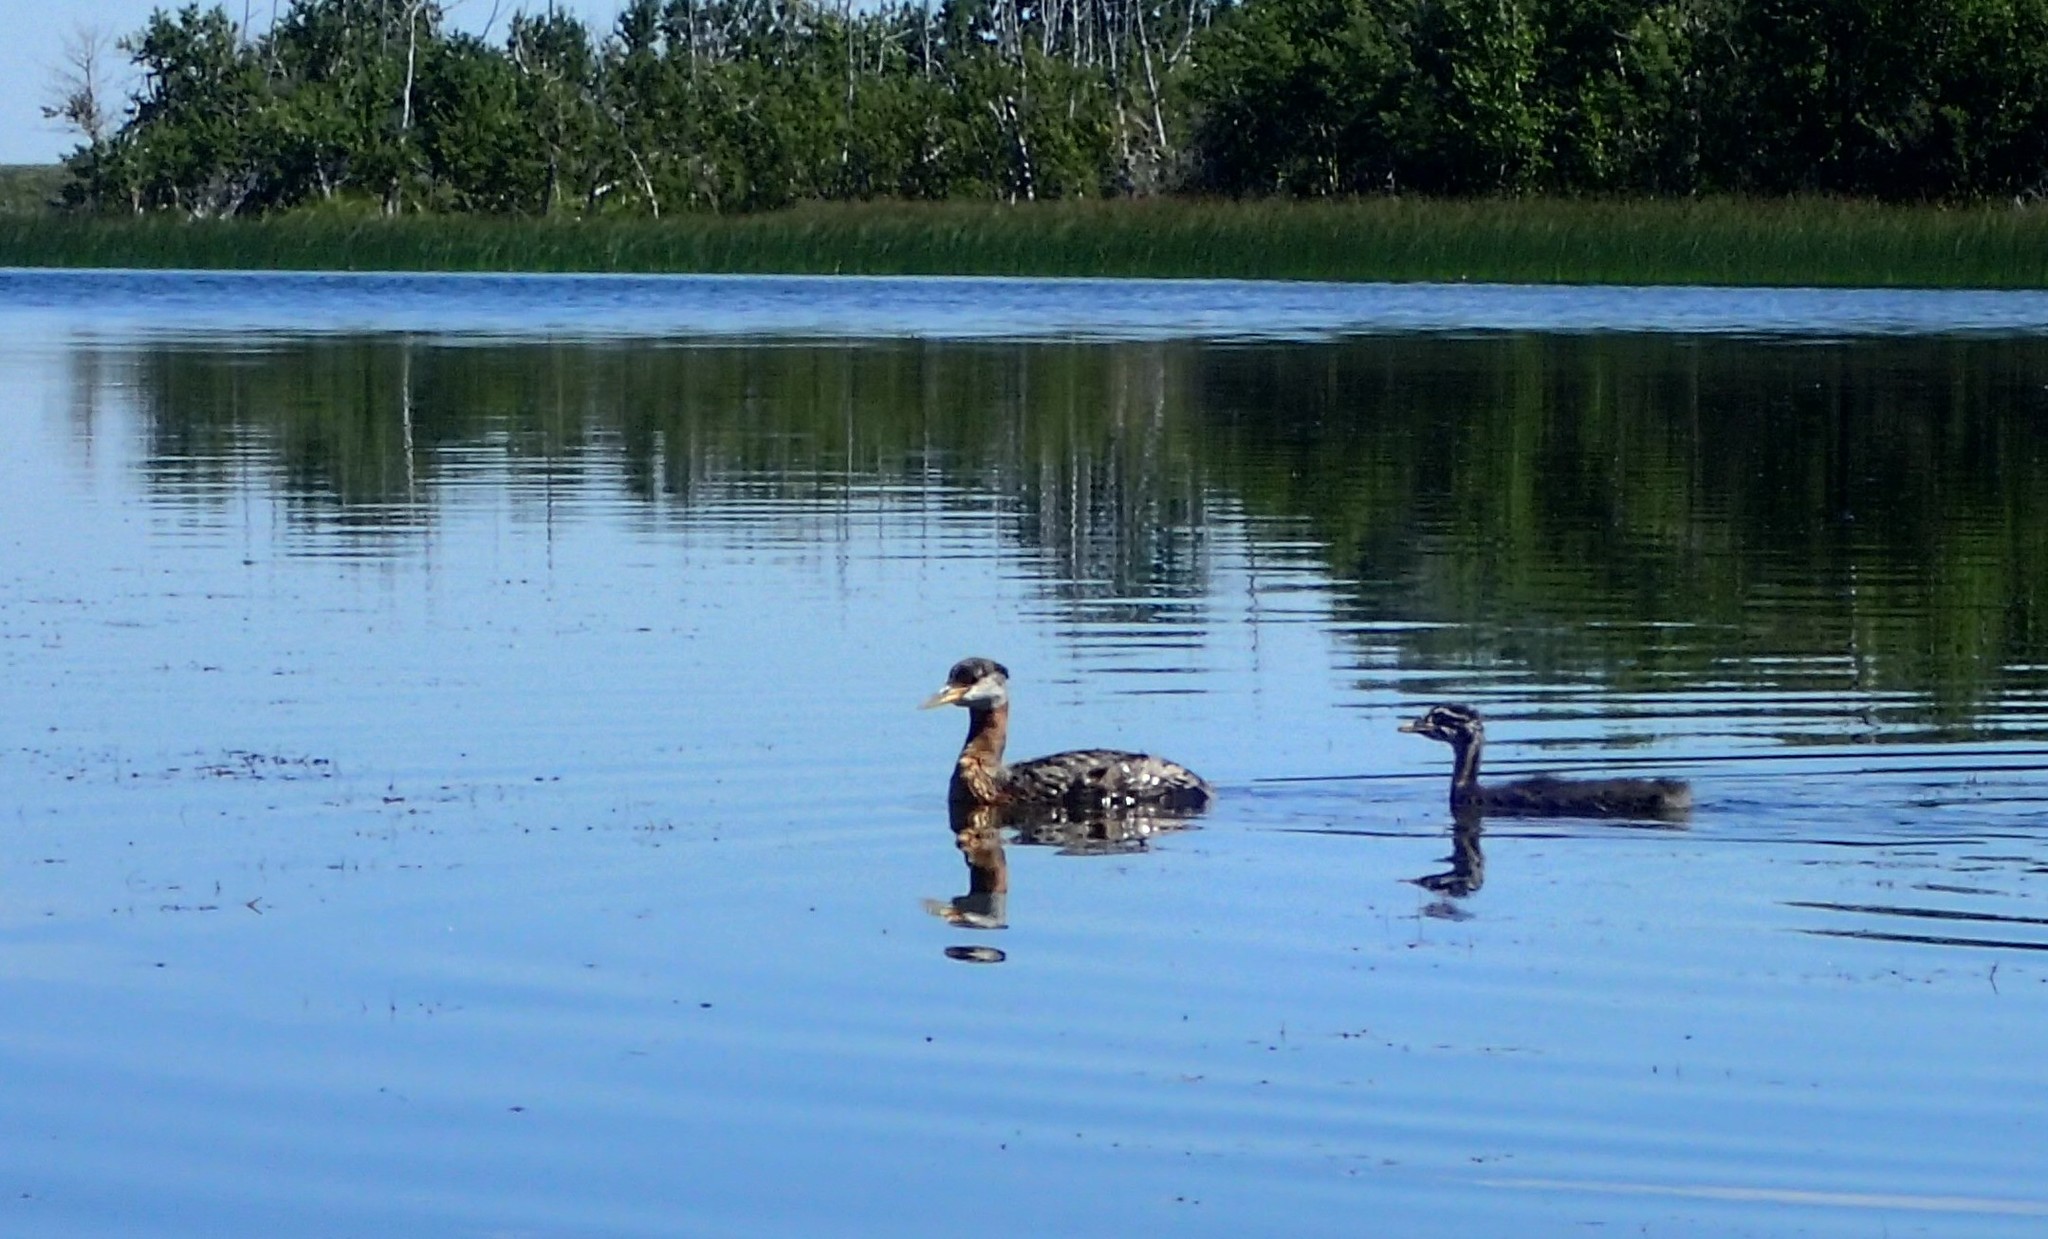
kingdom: Animalia
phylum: Chordata
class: Aves
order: Podicipediformes
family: Podicipedidae
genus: Podiceps
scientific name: Podiceps grisegena
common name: Red-necked grebe
